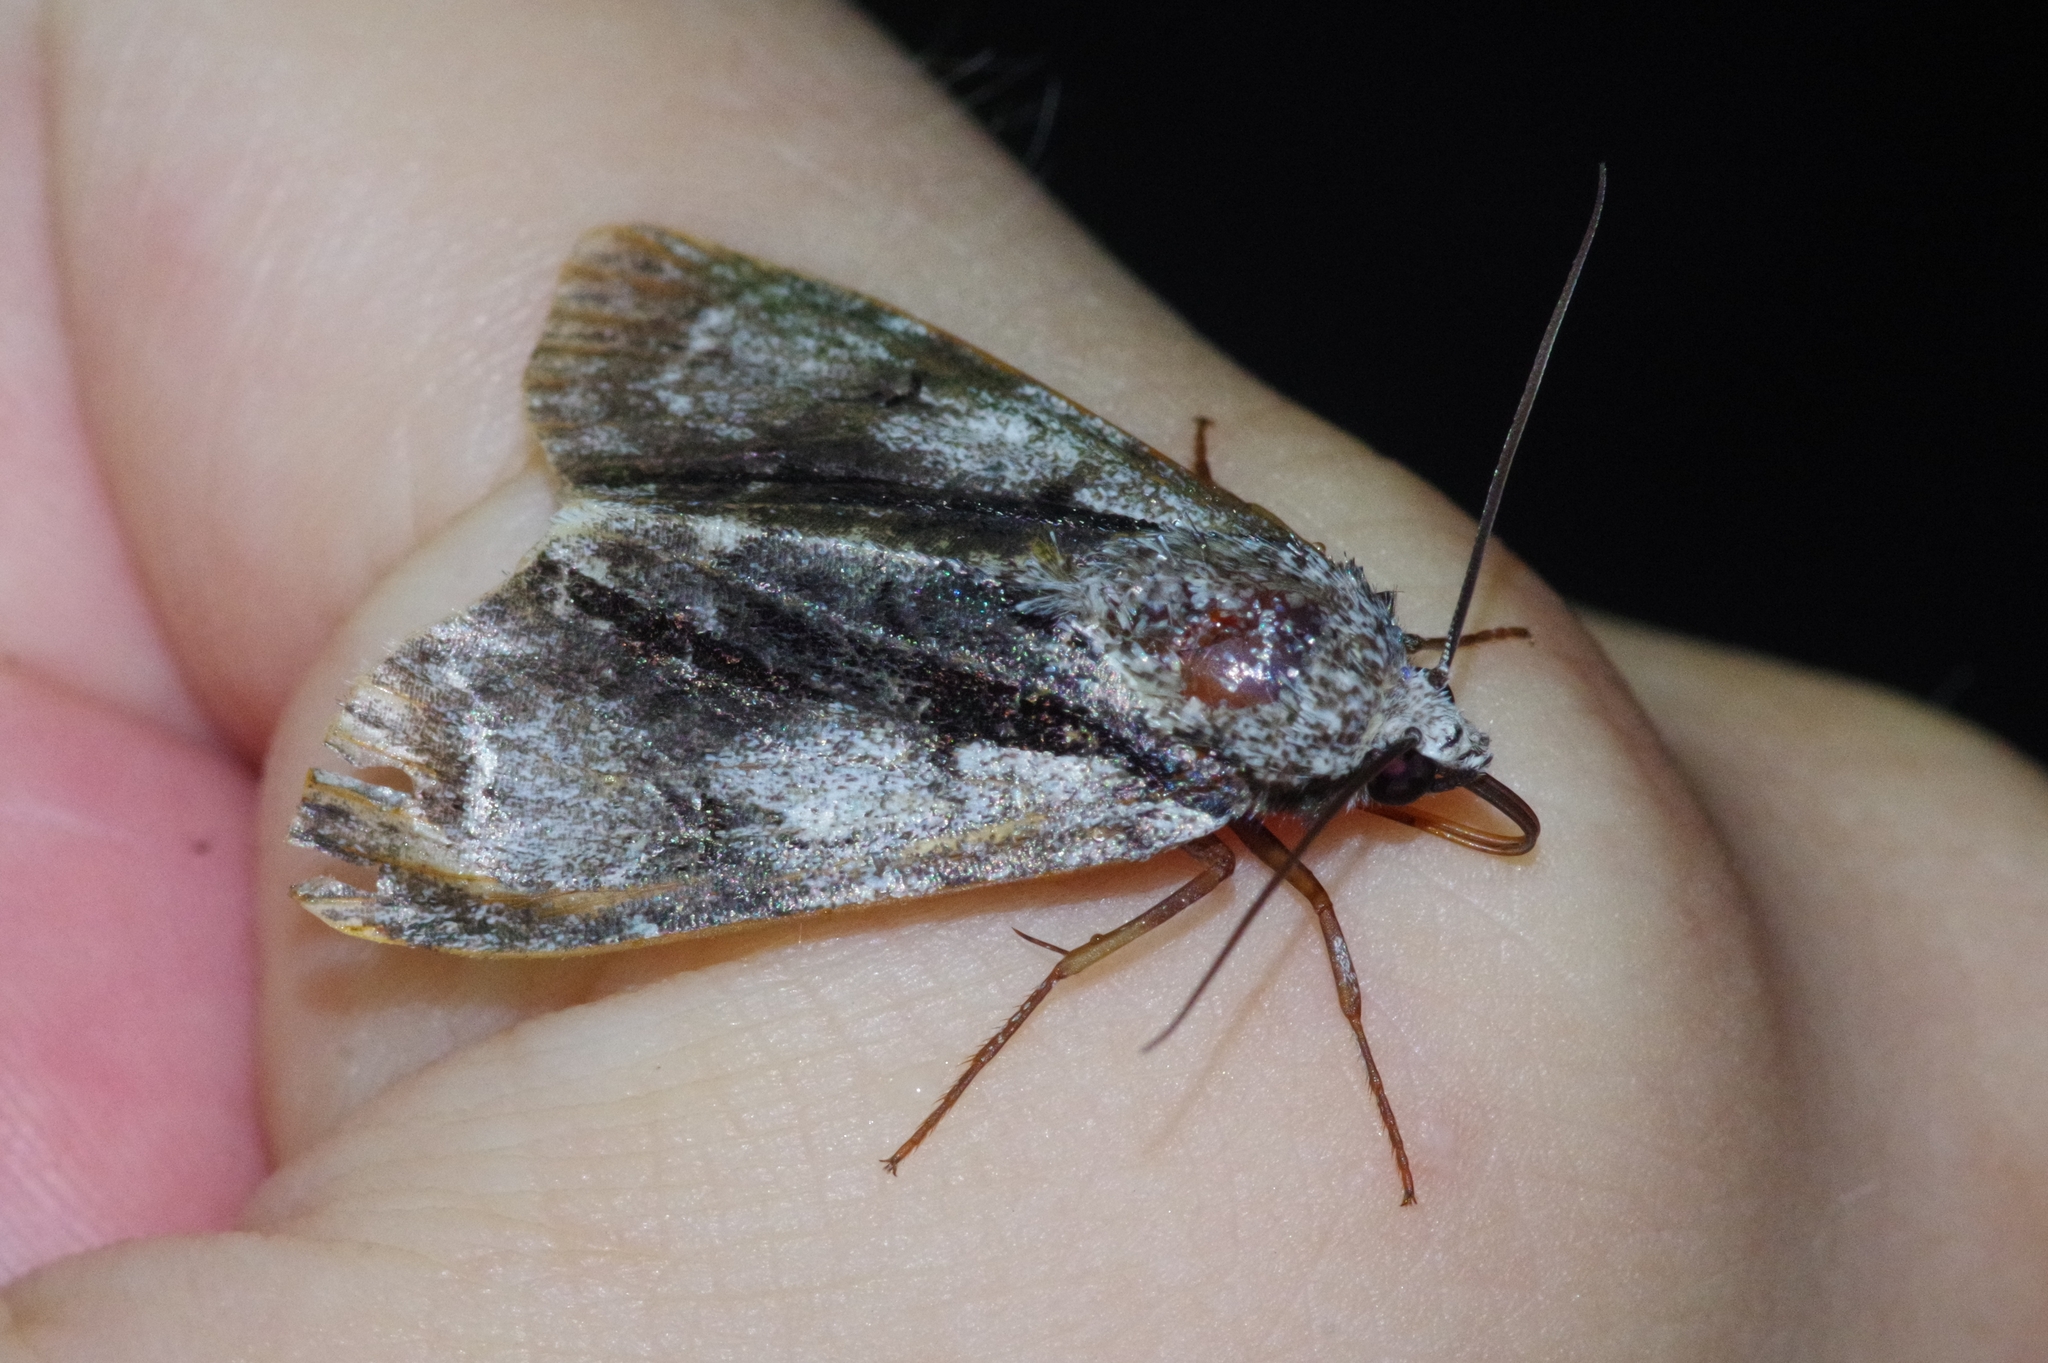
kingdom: Animalia
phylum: Arthropoda
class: Insecta
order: Lepidoptera
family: Noctuidae
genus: Acronicta
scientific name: Acronicta alni
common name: Alder moth
